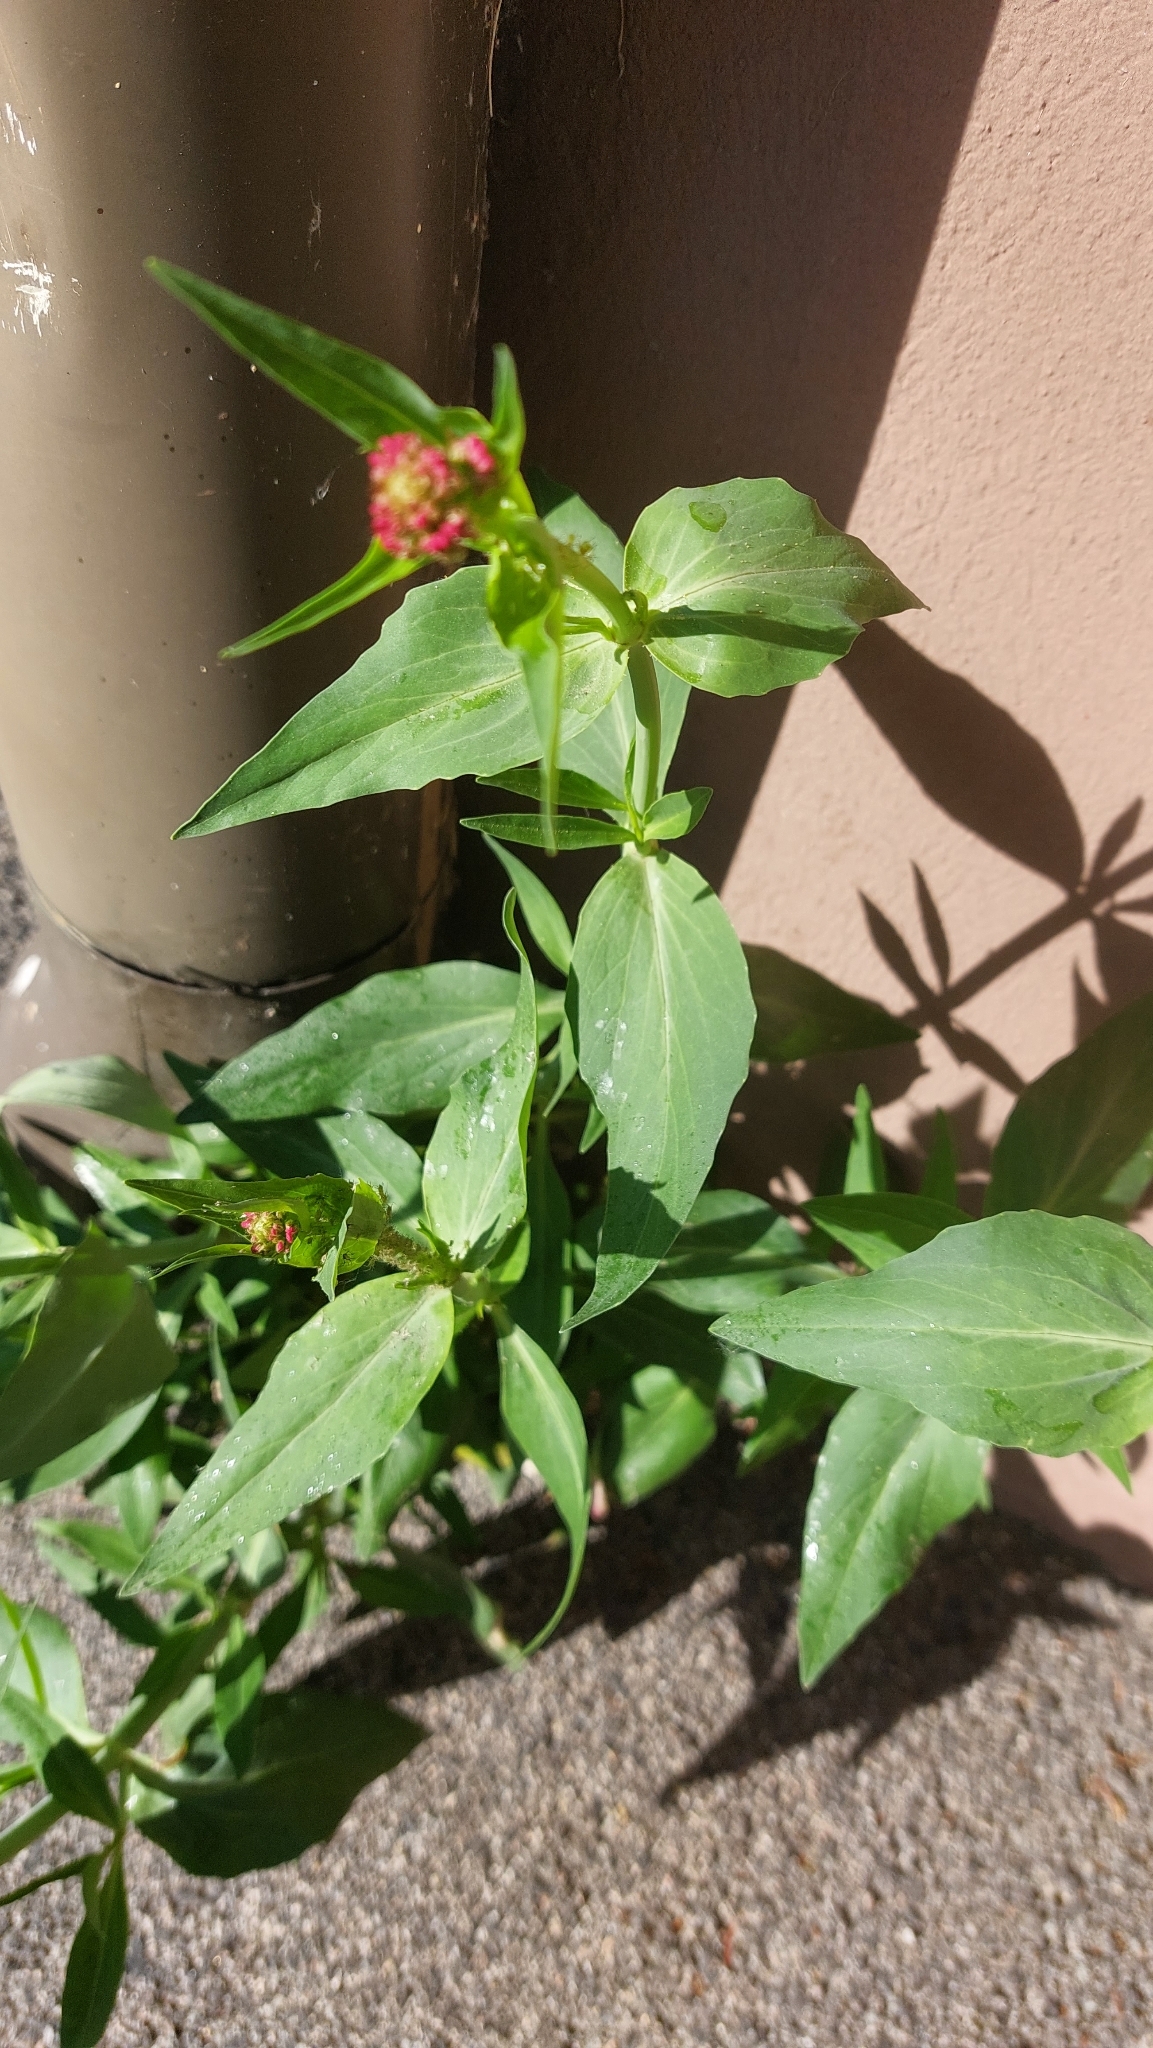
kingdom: Plantae
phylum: Tracheophyta
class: Magnoliopsida
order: Dipsacales
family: Caprifoliaceae
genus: Centranthus
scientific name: Centranthus ruber
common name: Red valerian
